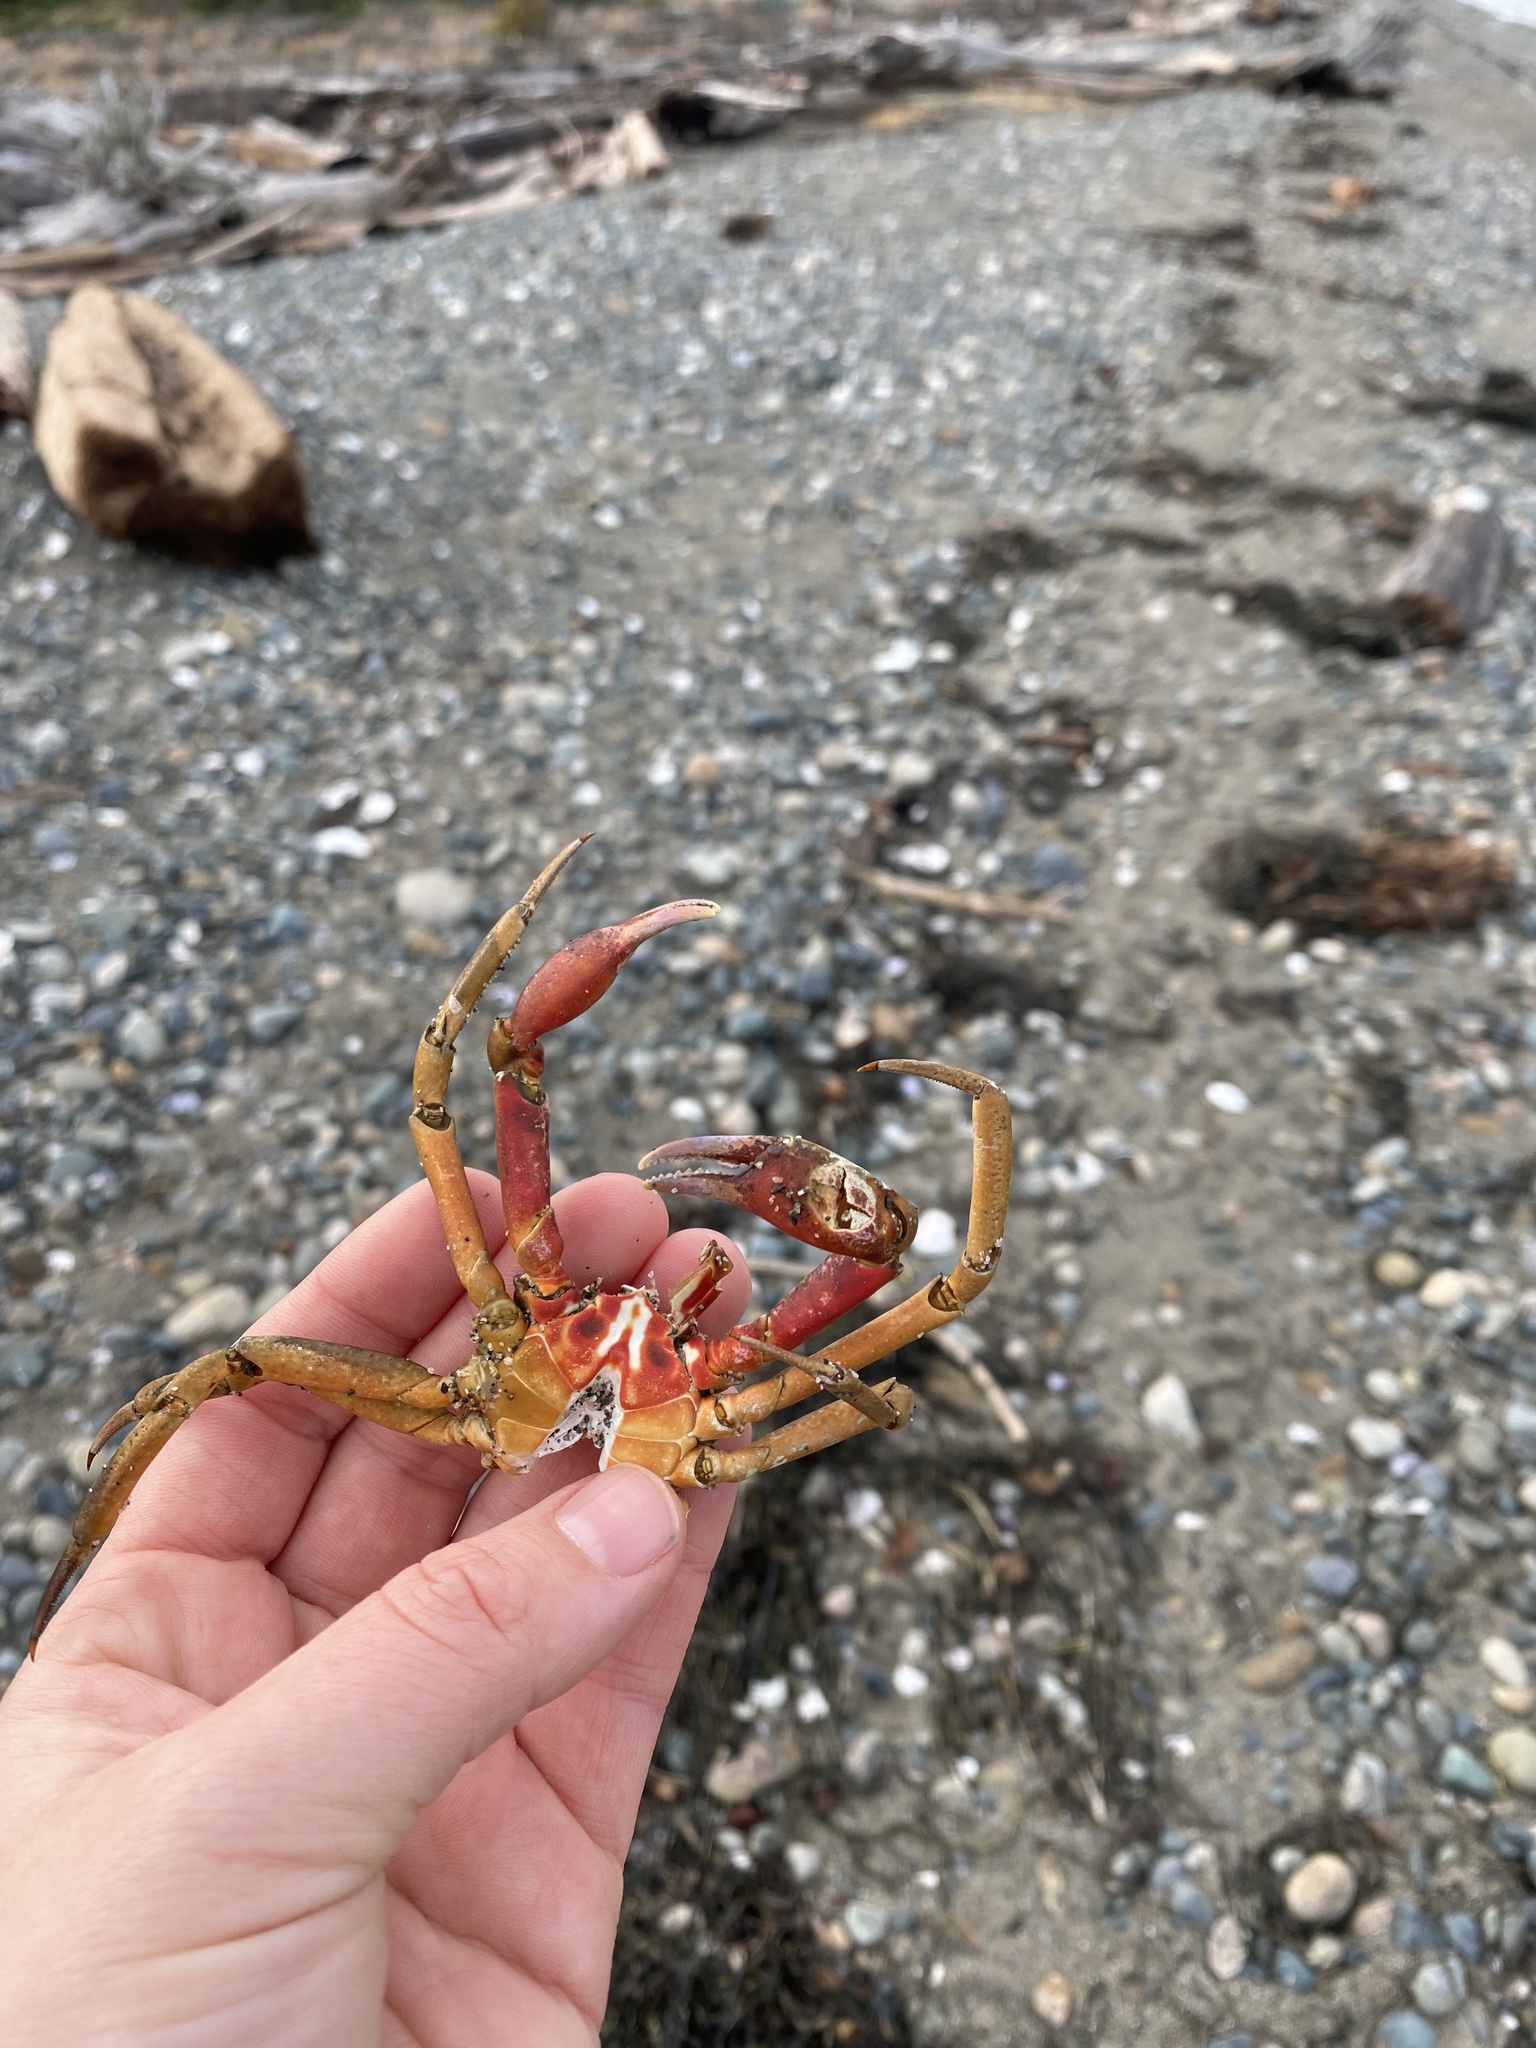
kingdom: Animalia
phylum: Arthropoda
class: Malacostraca
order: Decapoda
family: Epialtidae
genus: Pugettia
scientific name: Pugettia producta
